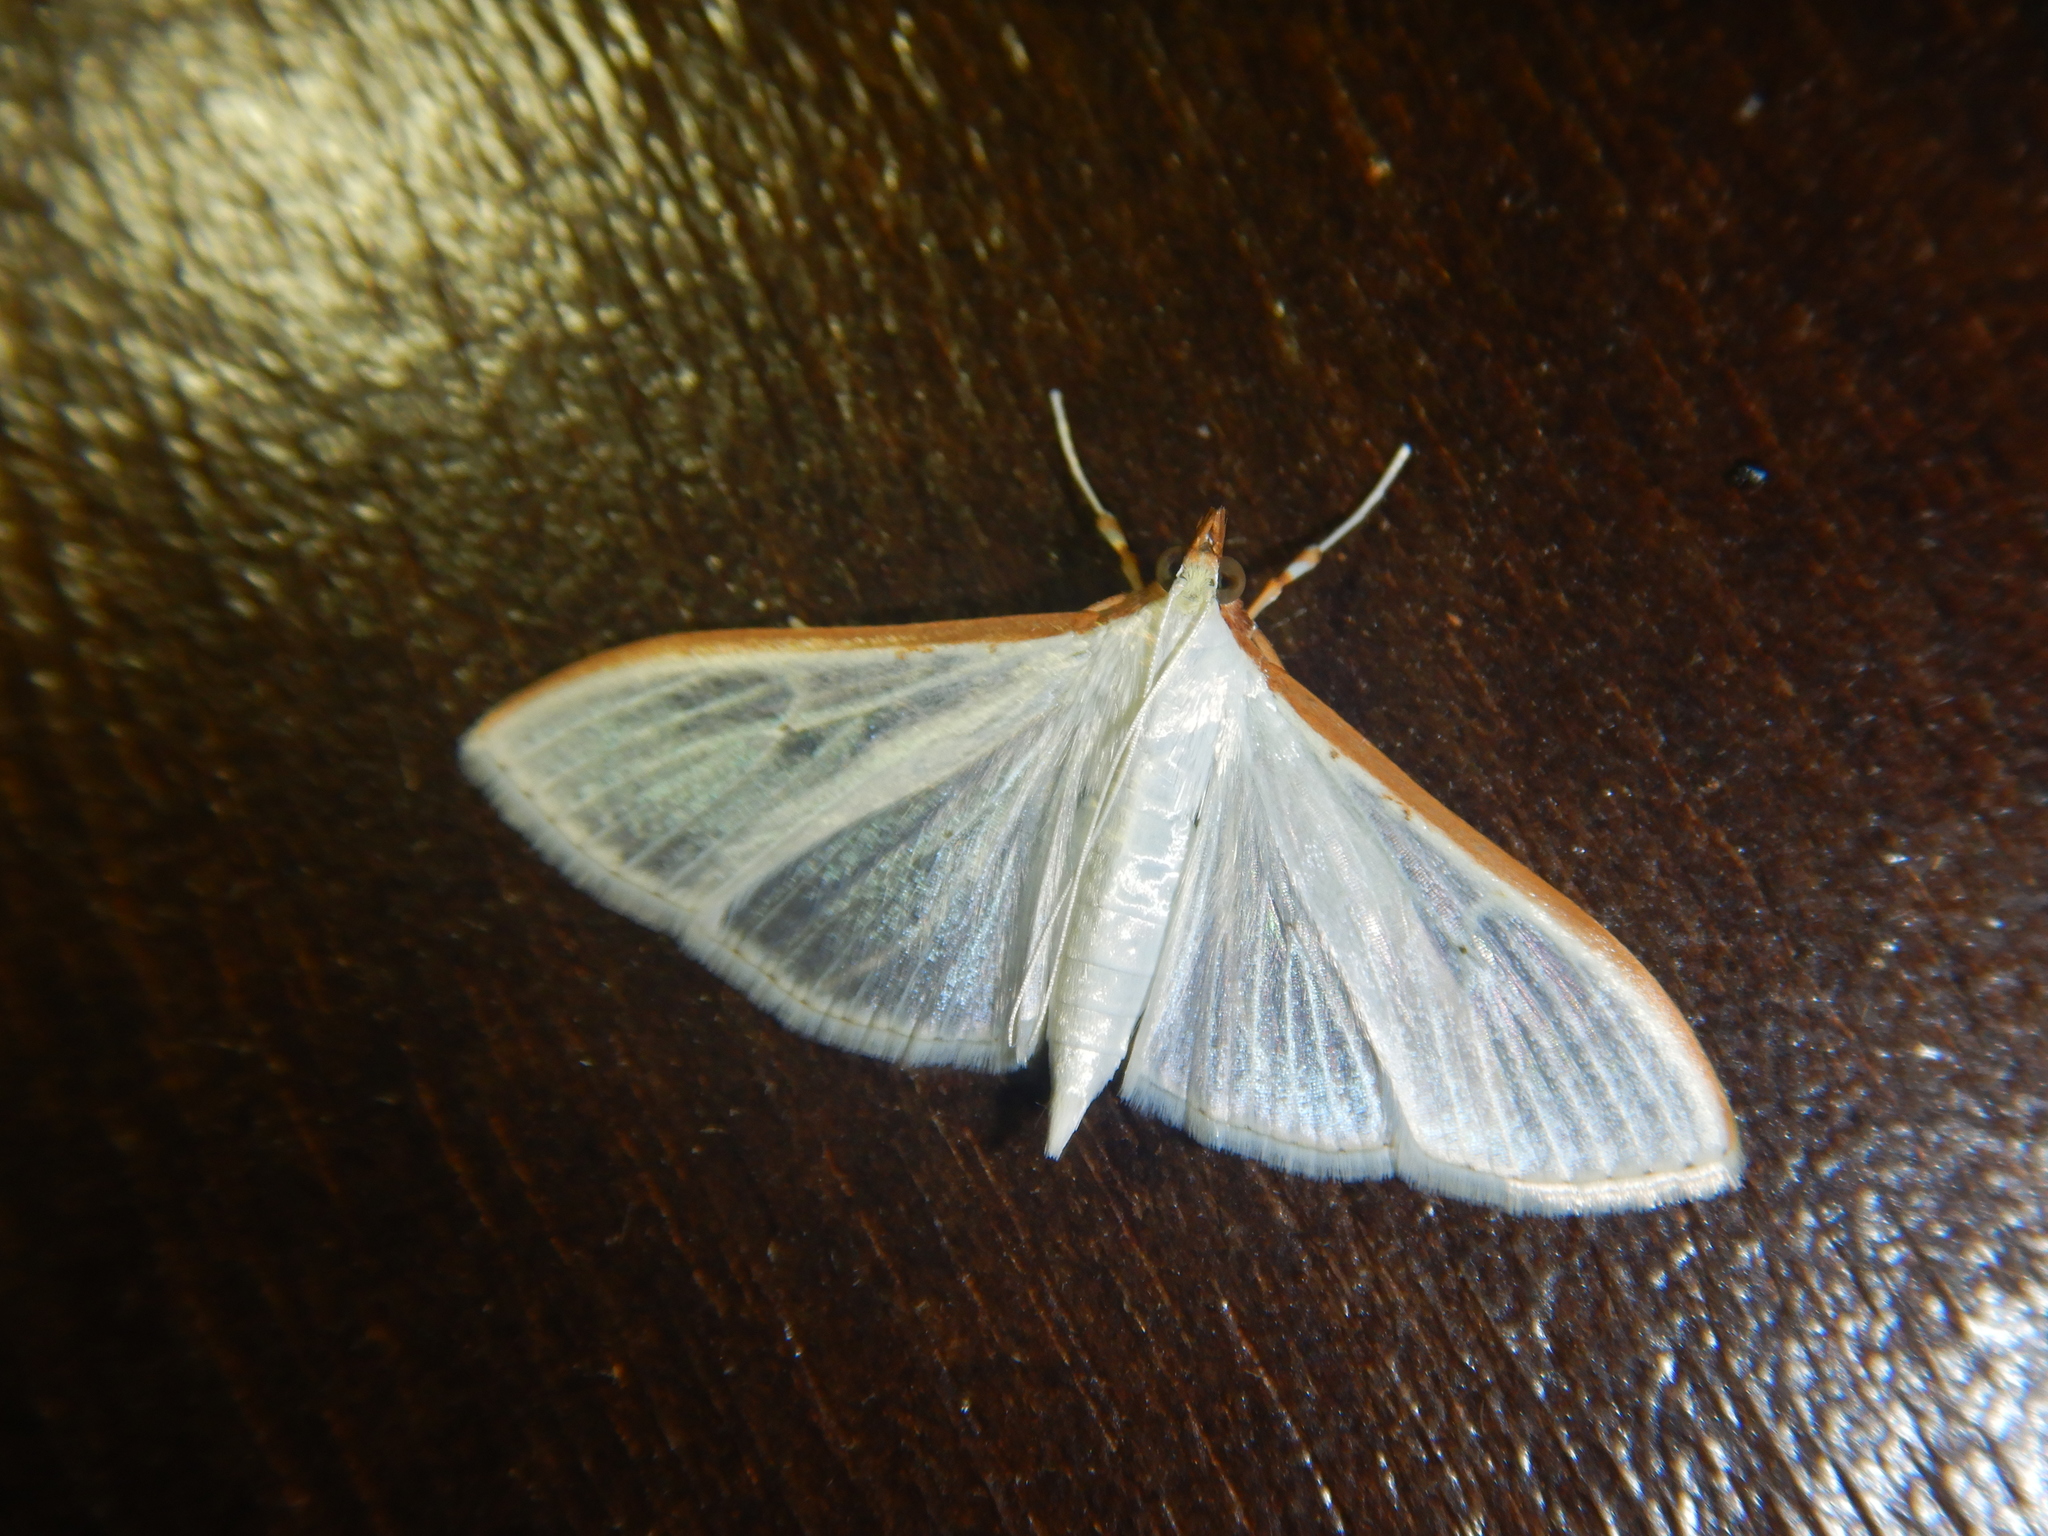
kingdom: Animalia
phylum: Arthropoda
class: Insecta
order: Lepidoptera
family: Crambidae
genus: Palpita
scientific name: Palpita vitrealis
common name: Olive-tree pearl
